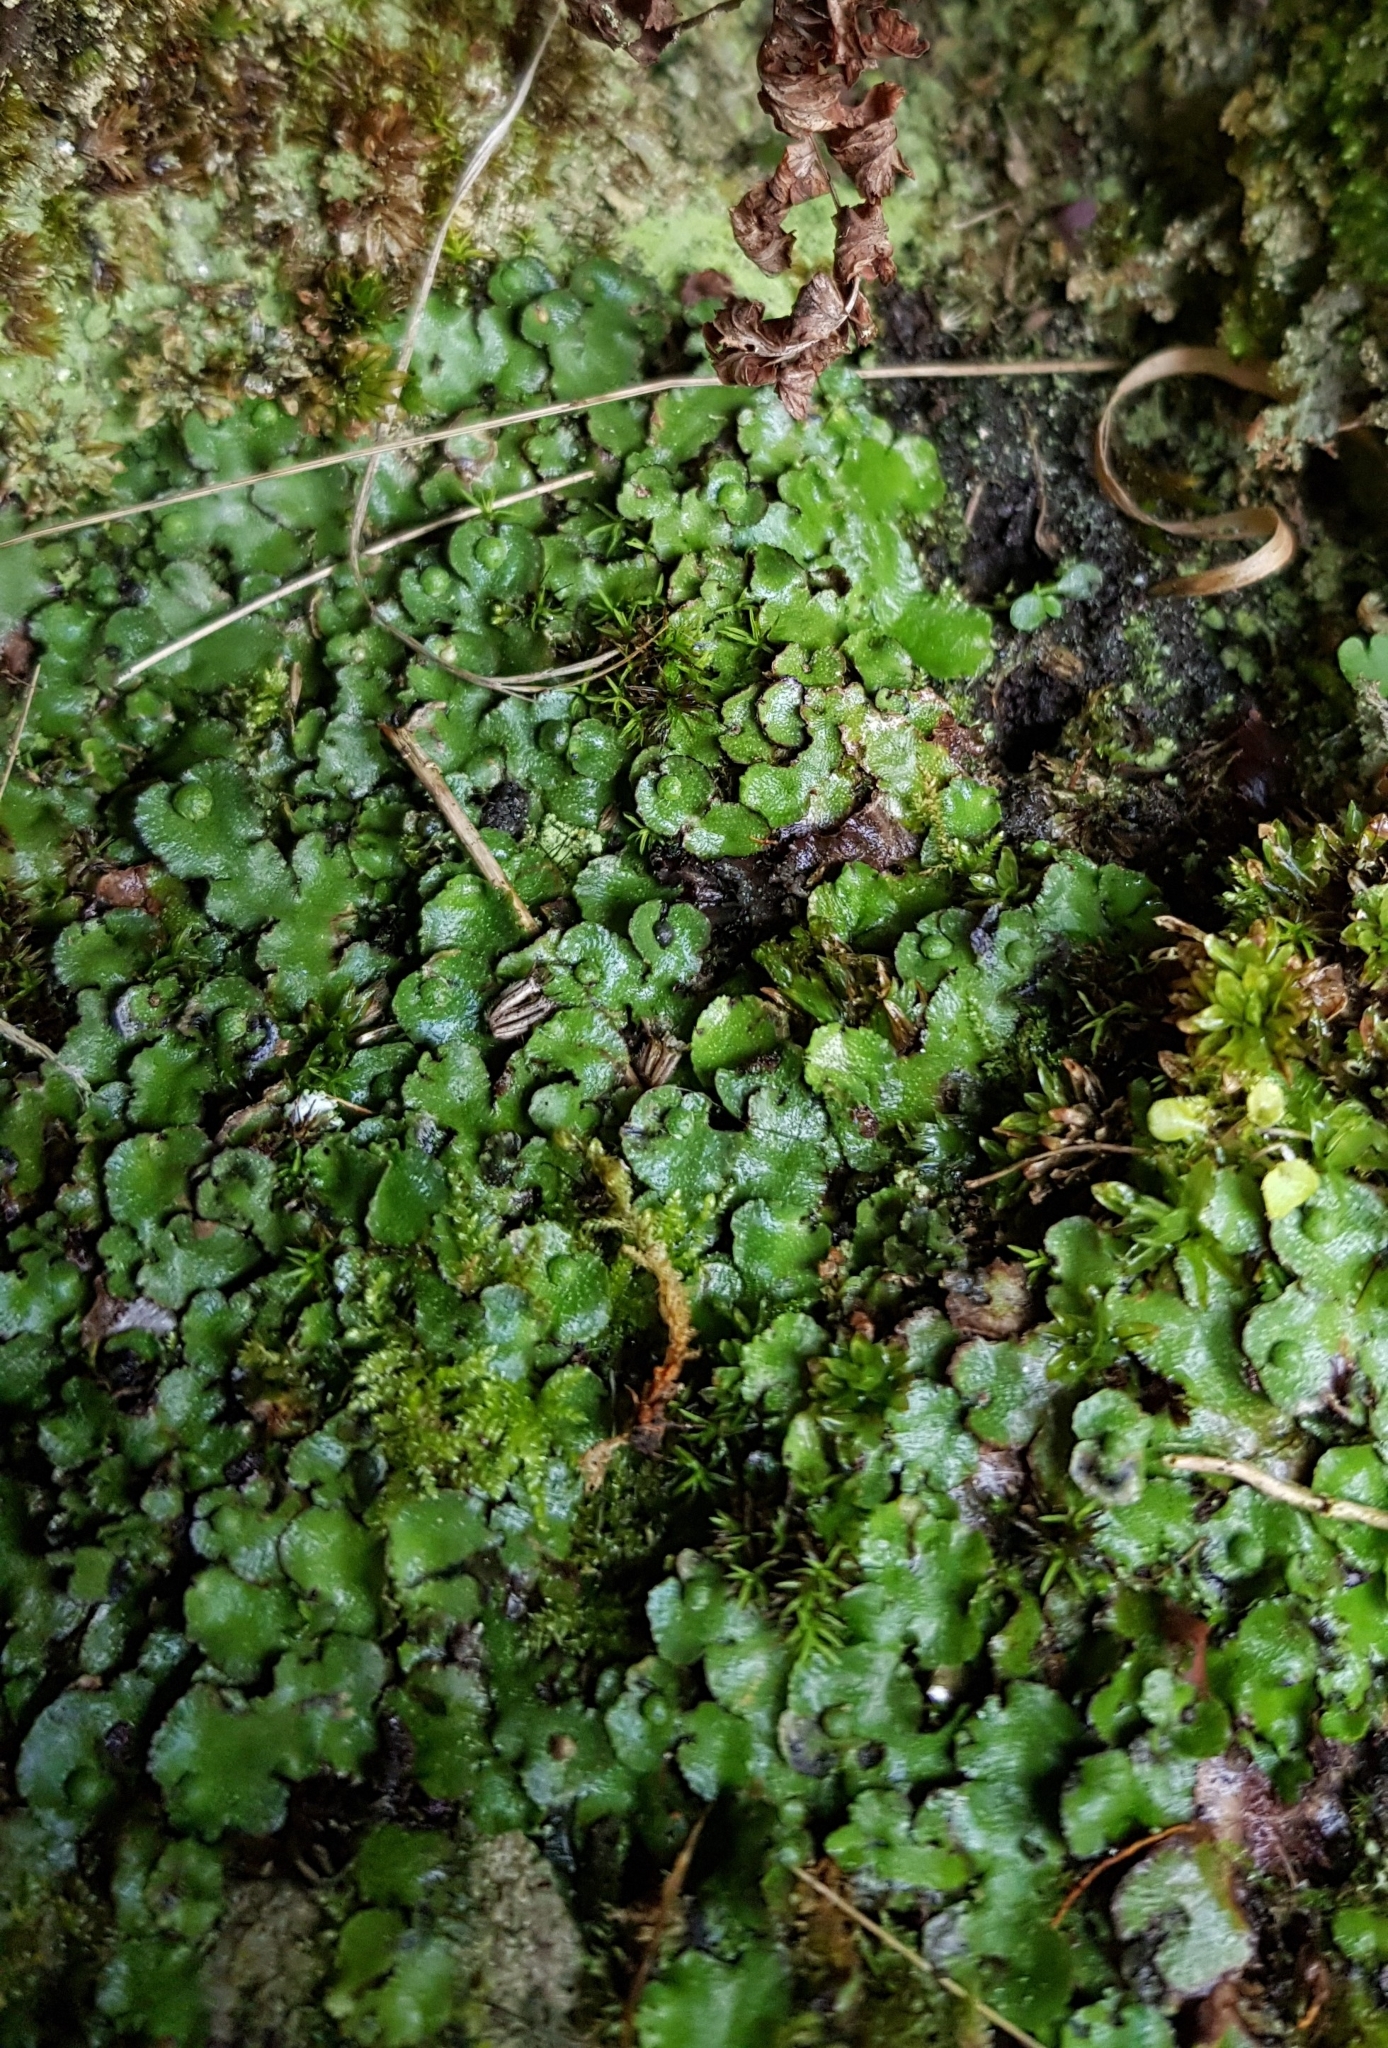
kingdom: Plantae
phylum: Marchantiophyta
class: Marchantiopsida
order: Marchantiales
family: Aytoniaceae
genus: Reboulia
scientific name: Reboulia hemisphaerica
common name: Purple-margined liverwort
